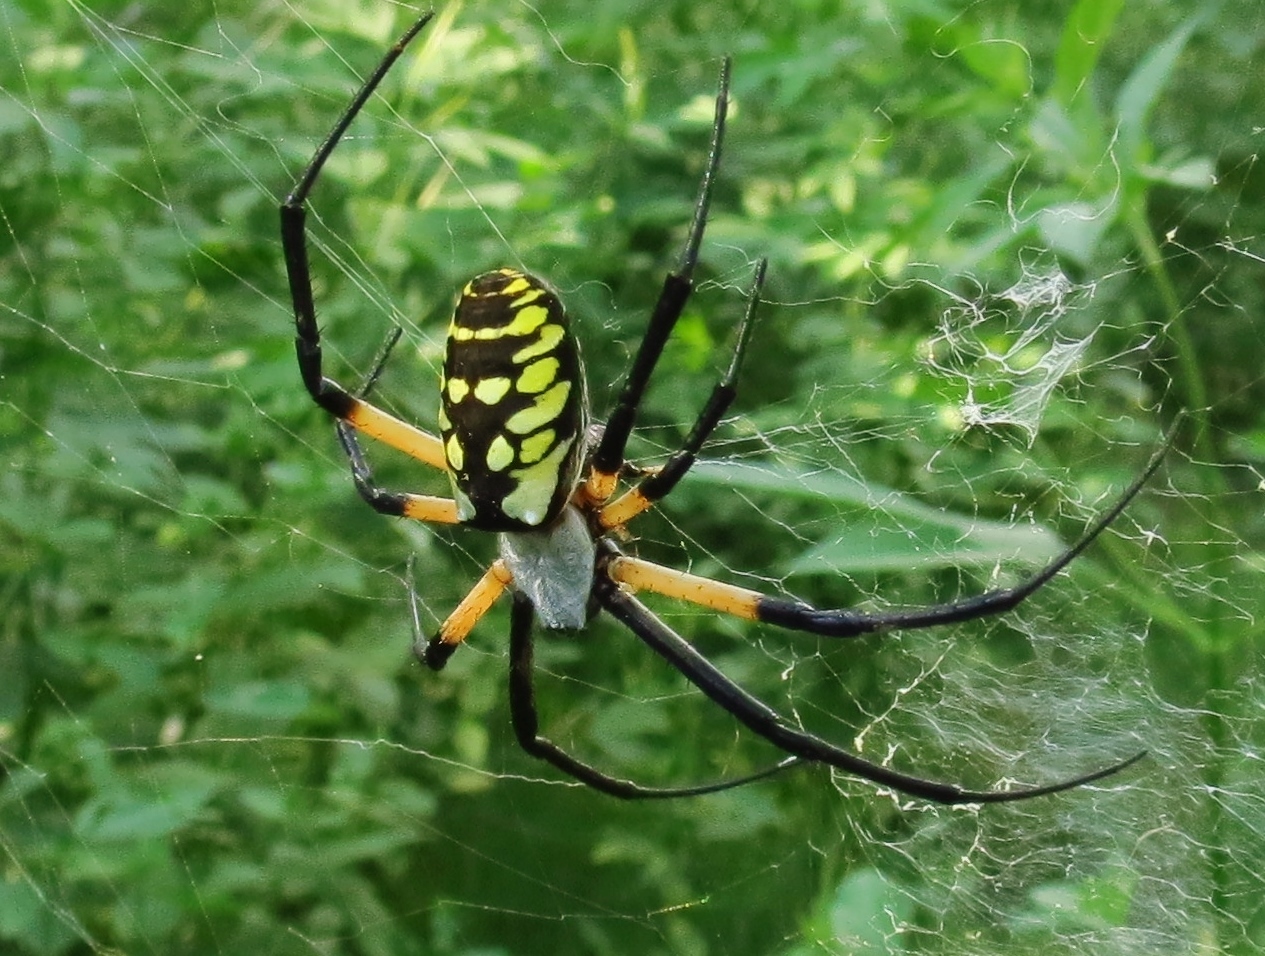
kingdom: Animalia
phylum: Arthropoda
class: Arachnida
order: Araneae
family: Araneidae
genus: Argiope
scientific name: Argiope aurantia
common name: Orb weavers
